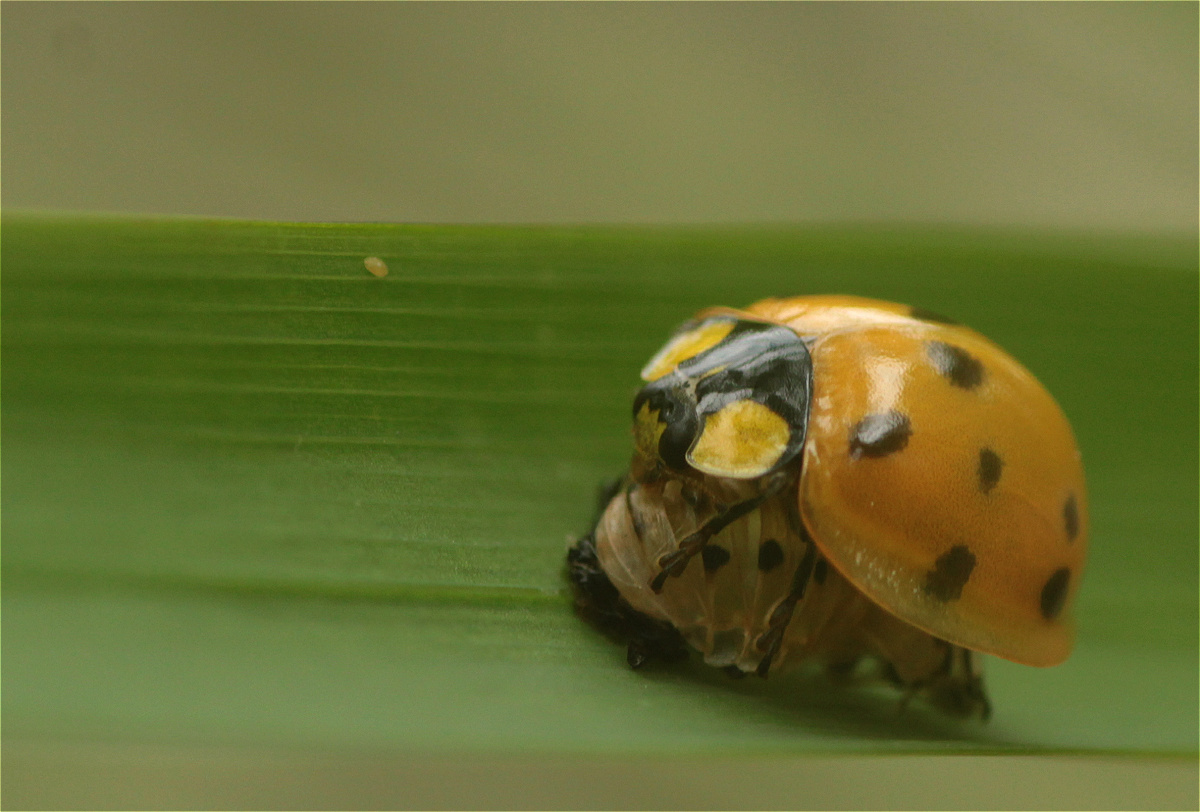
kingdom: Animalia
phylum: Arthropoda
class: Insecta
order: Coleoptera
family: Coccinellidae
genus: Neda
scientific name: Neda aequatoriana
